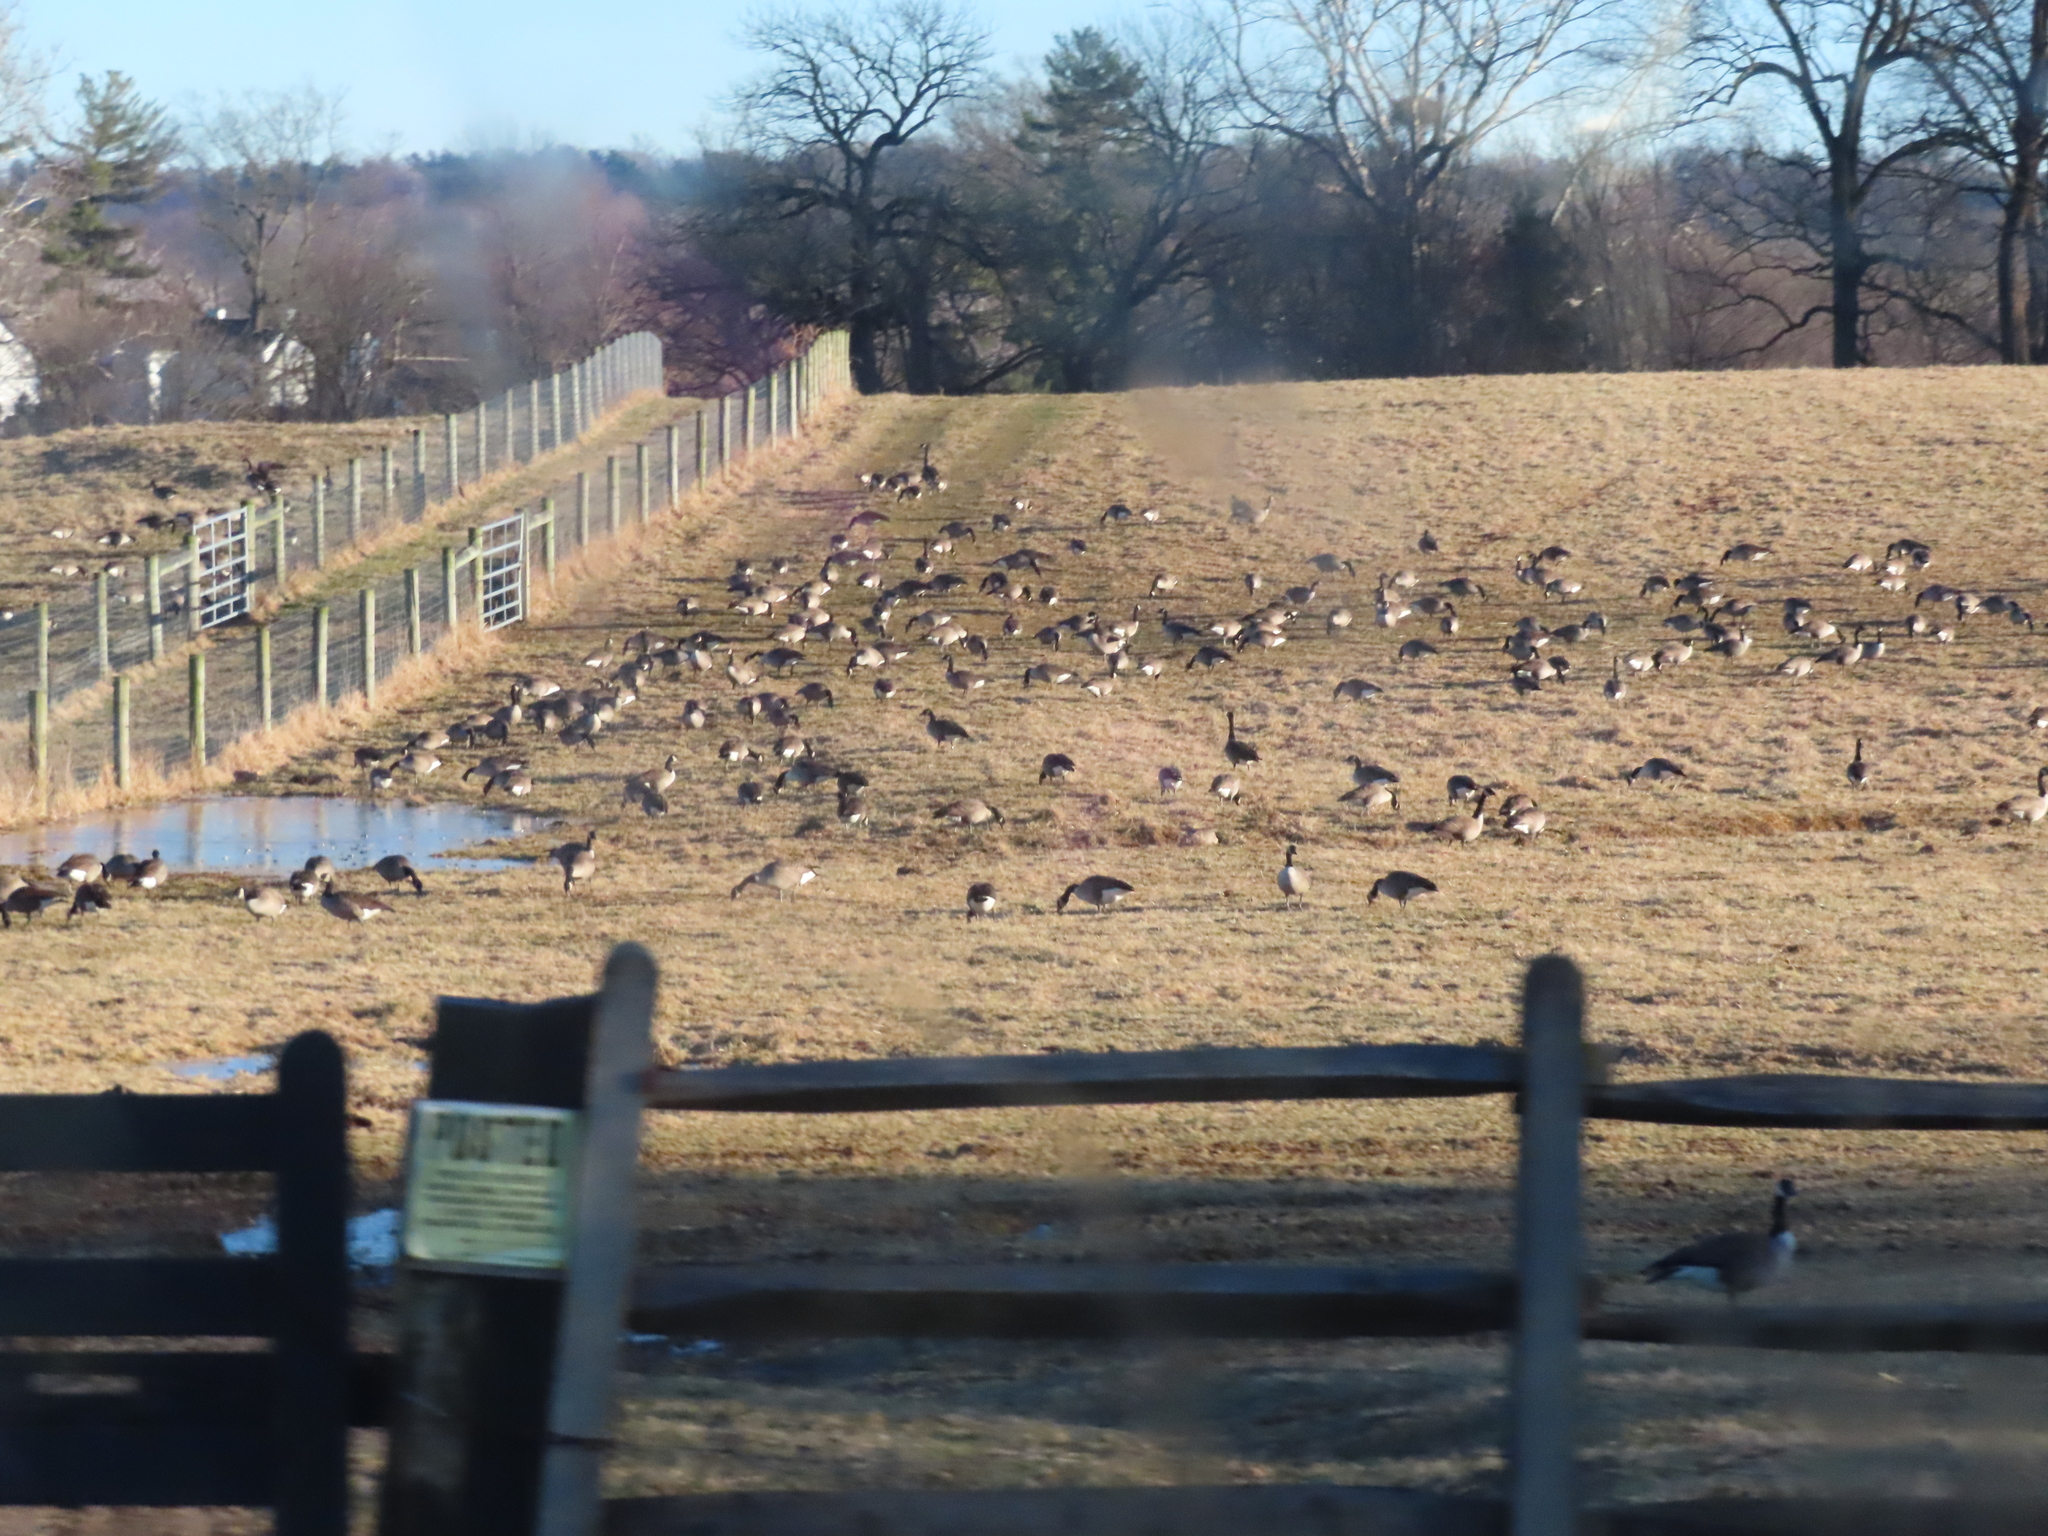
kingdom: Animalia
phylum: Chordata
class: Aves
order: Anseriformes
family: Anatidae
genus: Branta
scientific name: Branta canadensis
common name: Canada goose
